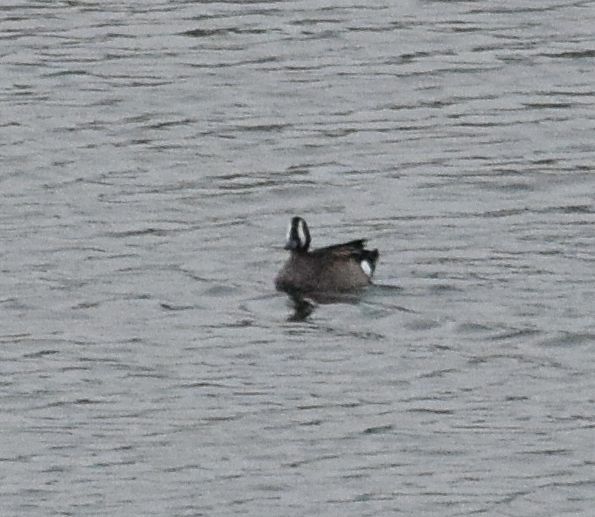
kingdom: Animalia
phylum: Chordata
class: Aves
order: Anseriformes
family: Anatidae
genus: Spatula
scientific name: Spatula discors
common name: Blue-winged teal
